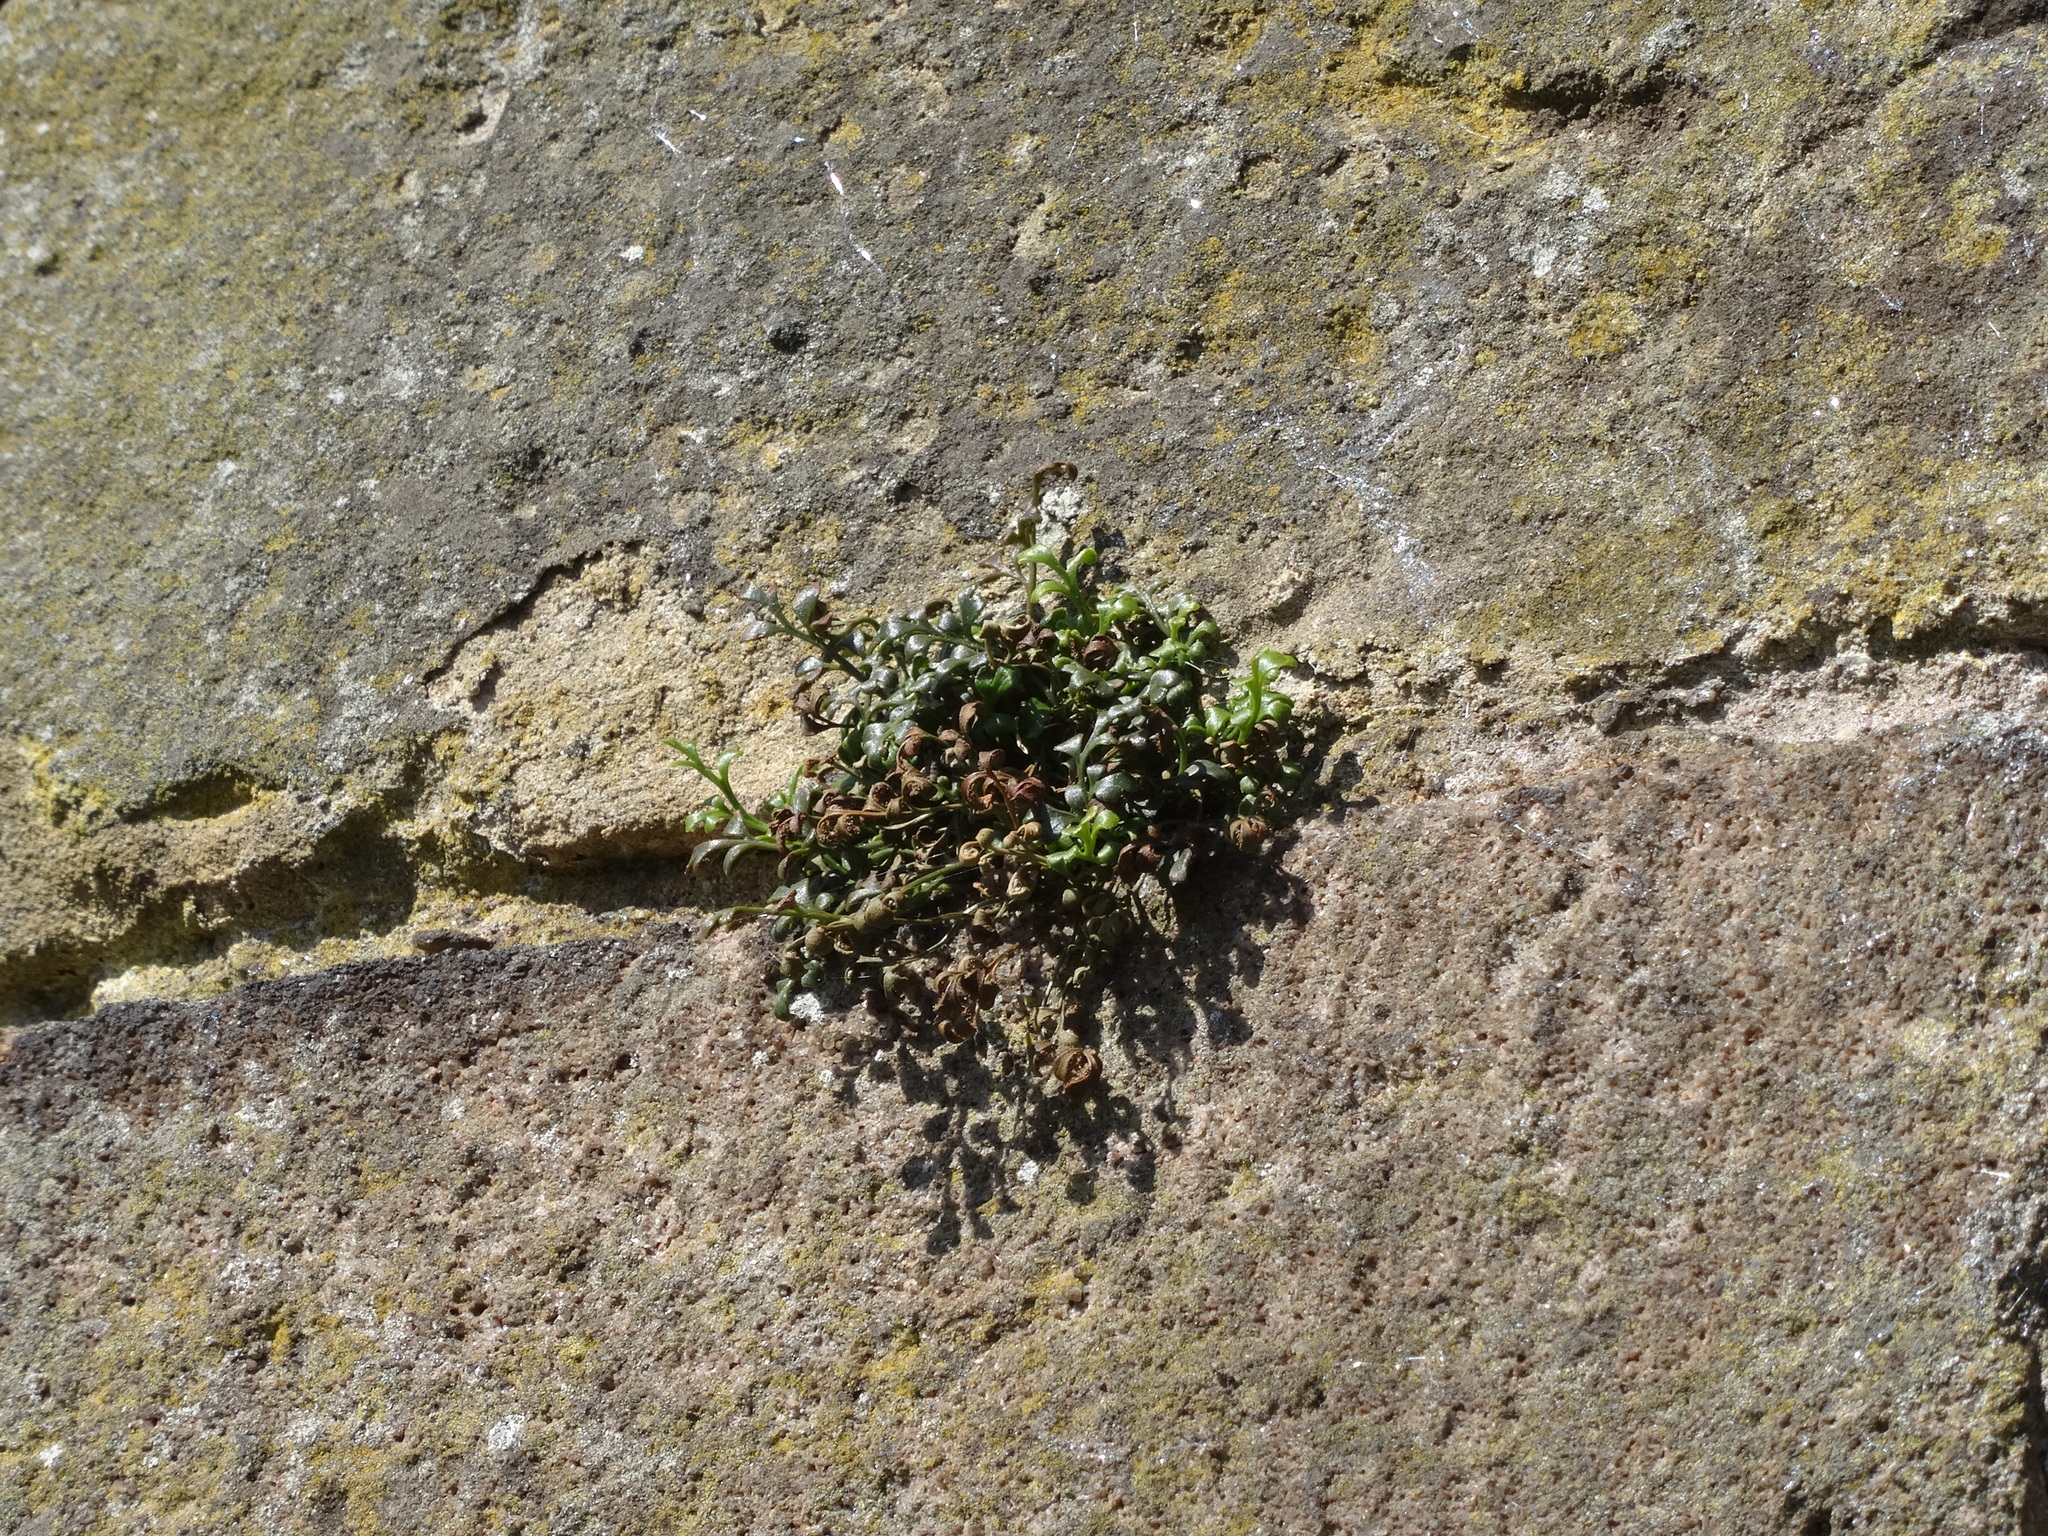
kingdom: Plantae
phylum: Tracheophyta
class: Polypodiopsida
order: Polypodiales
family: Aspleniaceae
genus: Asplenium
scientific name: Asplenium ruta-muraria
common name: Wall-rue
